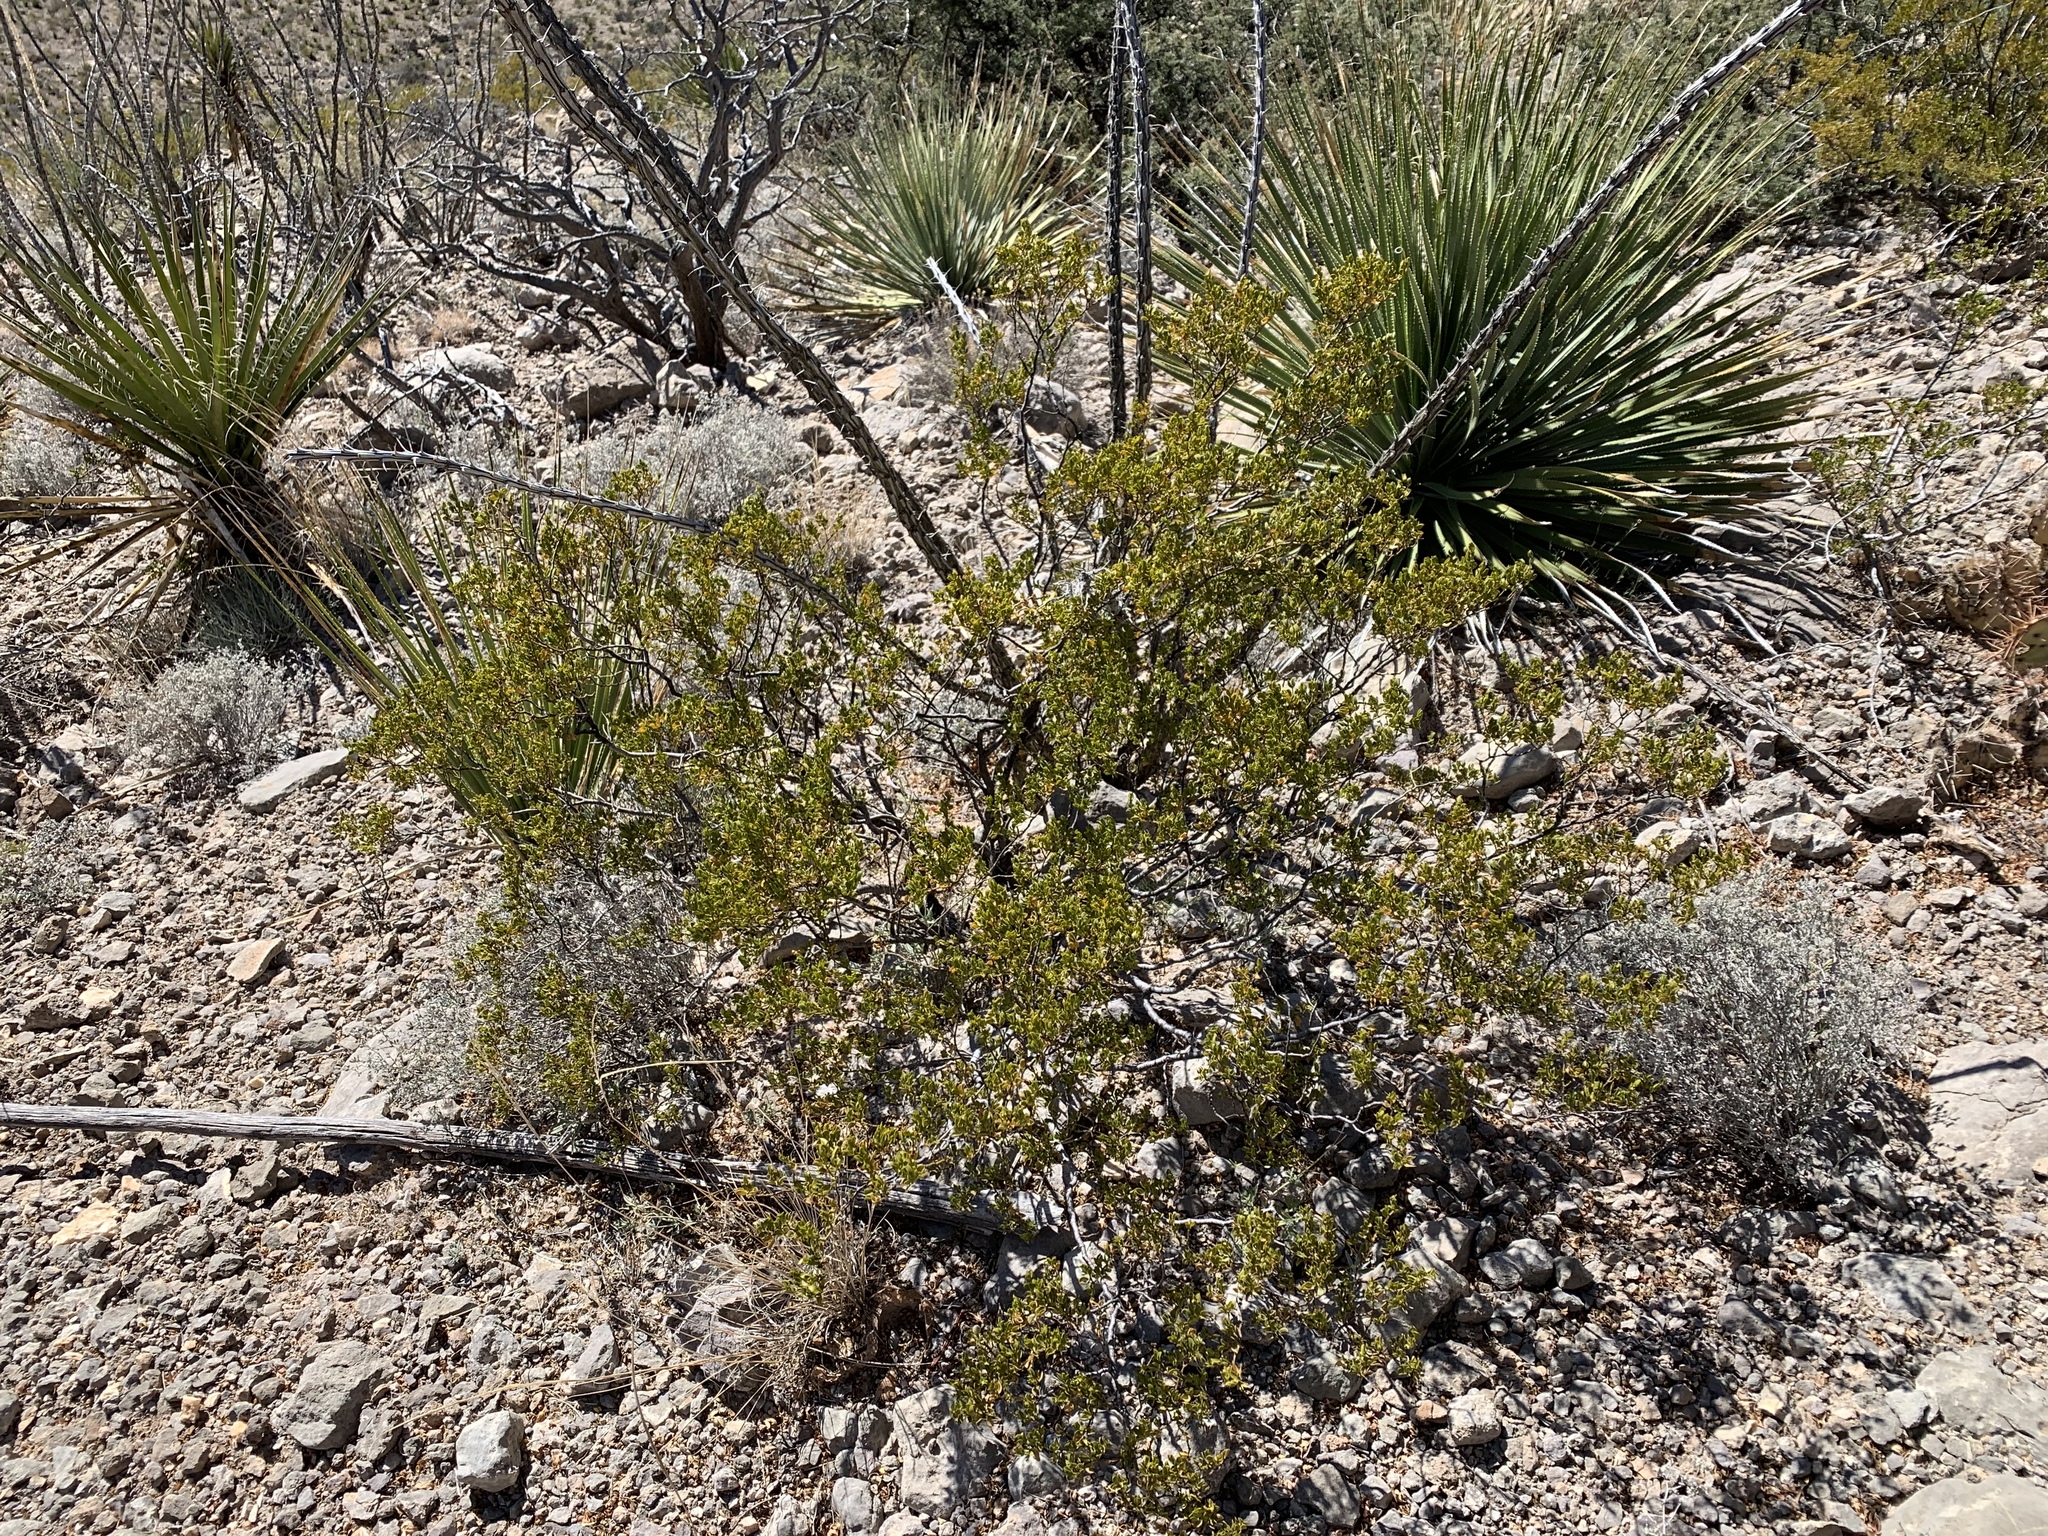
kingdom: Plantae
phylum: Tracheophyta
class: Magnoliopsida
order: Zygophyllales
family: Zygophyllaceae
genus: Larrea
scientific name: Larrea tridentata
